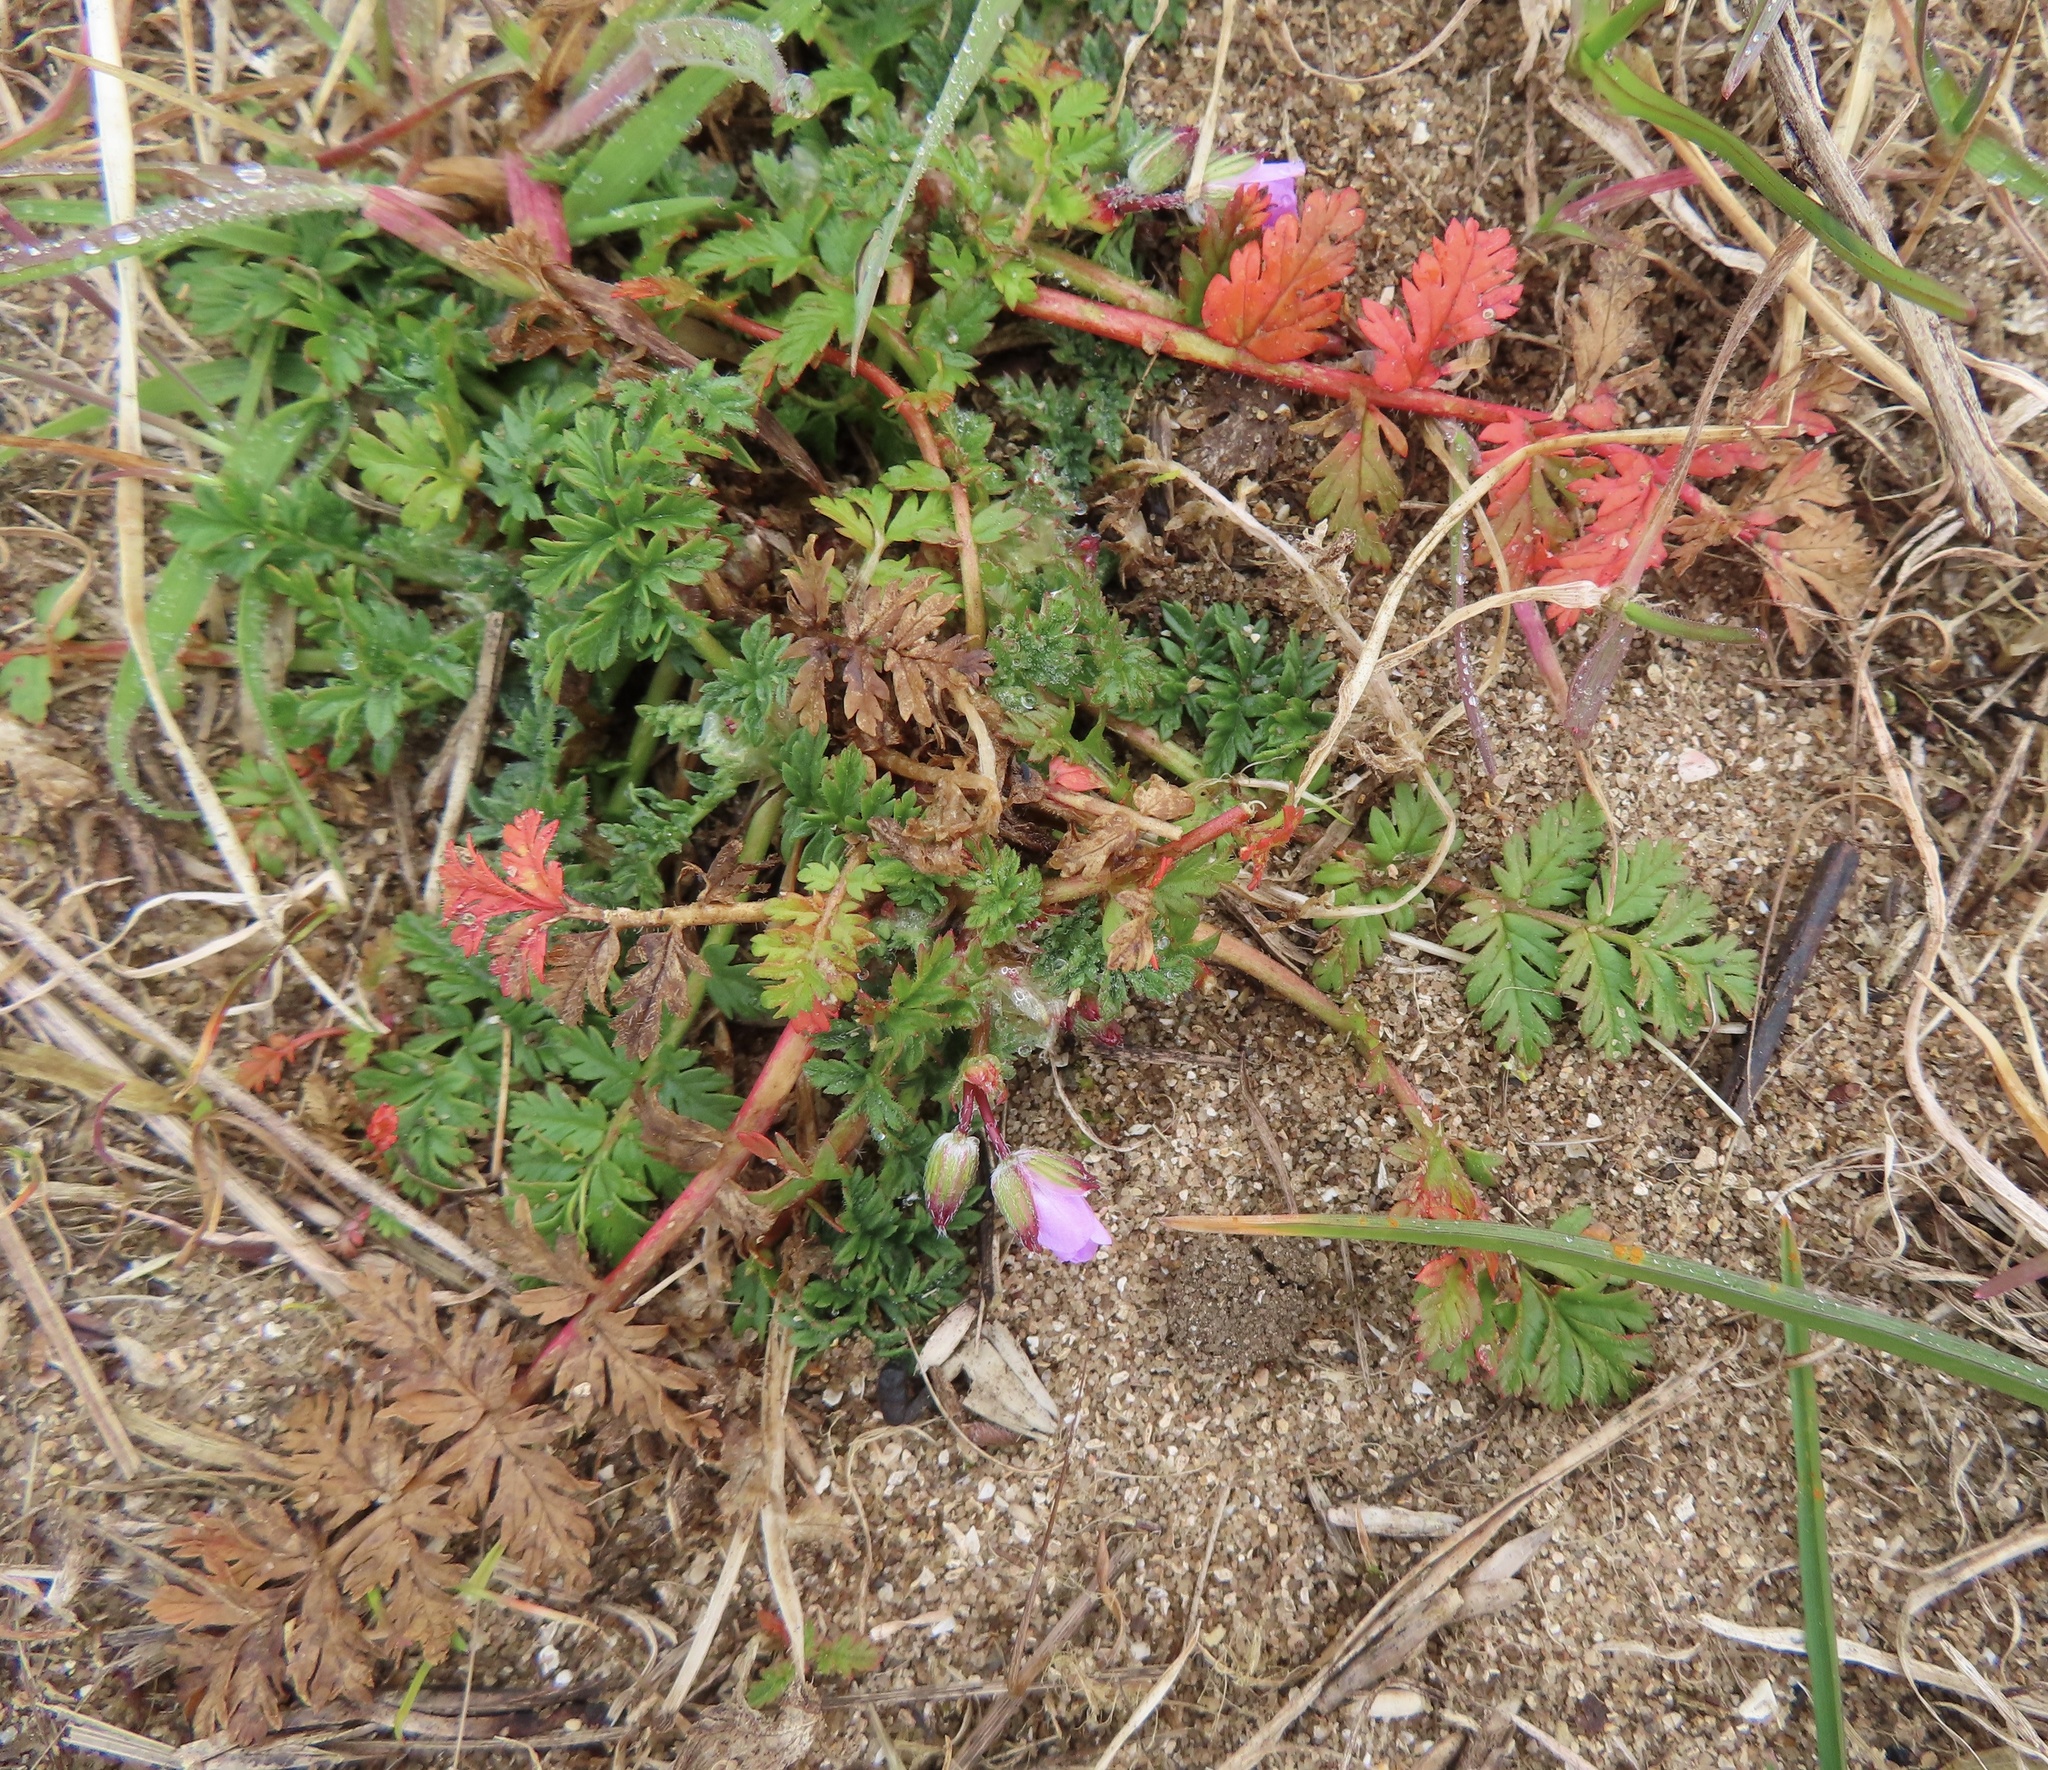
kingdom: Plantae
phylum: Tracheophyta
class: Magnoliopsida
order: Geraniales
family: Geraniaceae
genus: Erodium
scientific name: Erodium cicutarium
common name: Common stork's-bill
